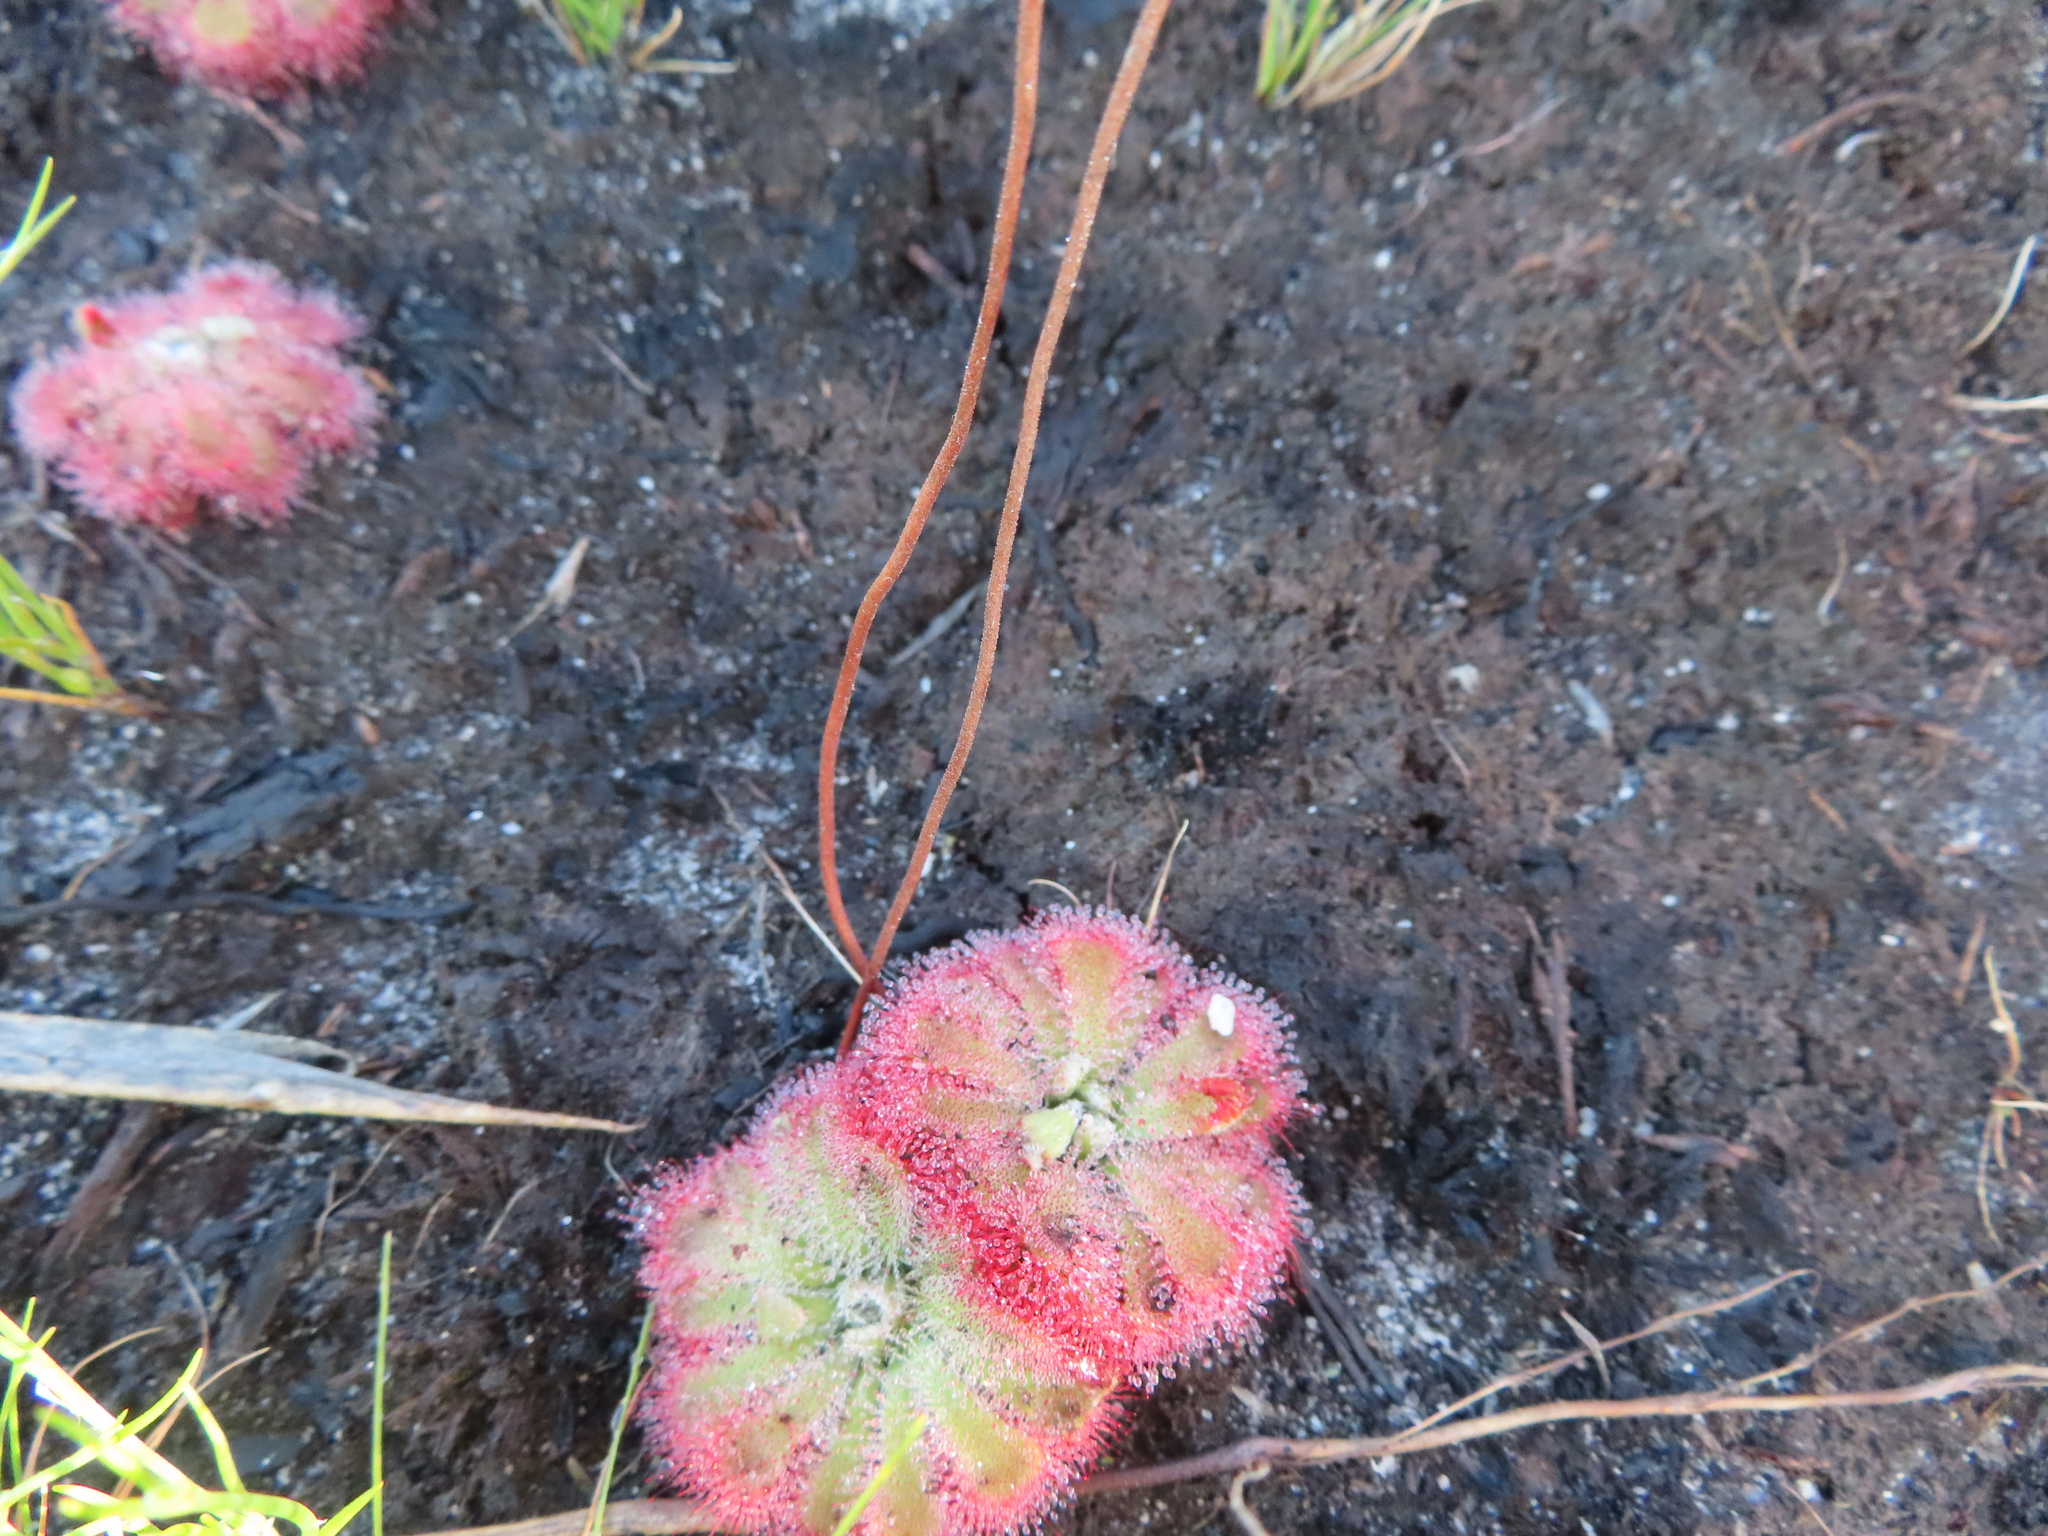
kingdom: Plantae
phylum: Tracheophyta
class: Magnoliopsida
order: Caryophyllales
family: Droseraceae
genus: Drosera
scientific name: Drosera aliciae
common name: Alice sundew
